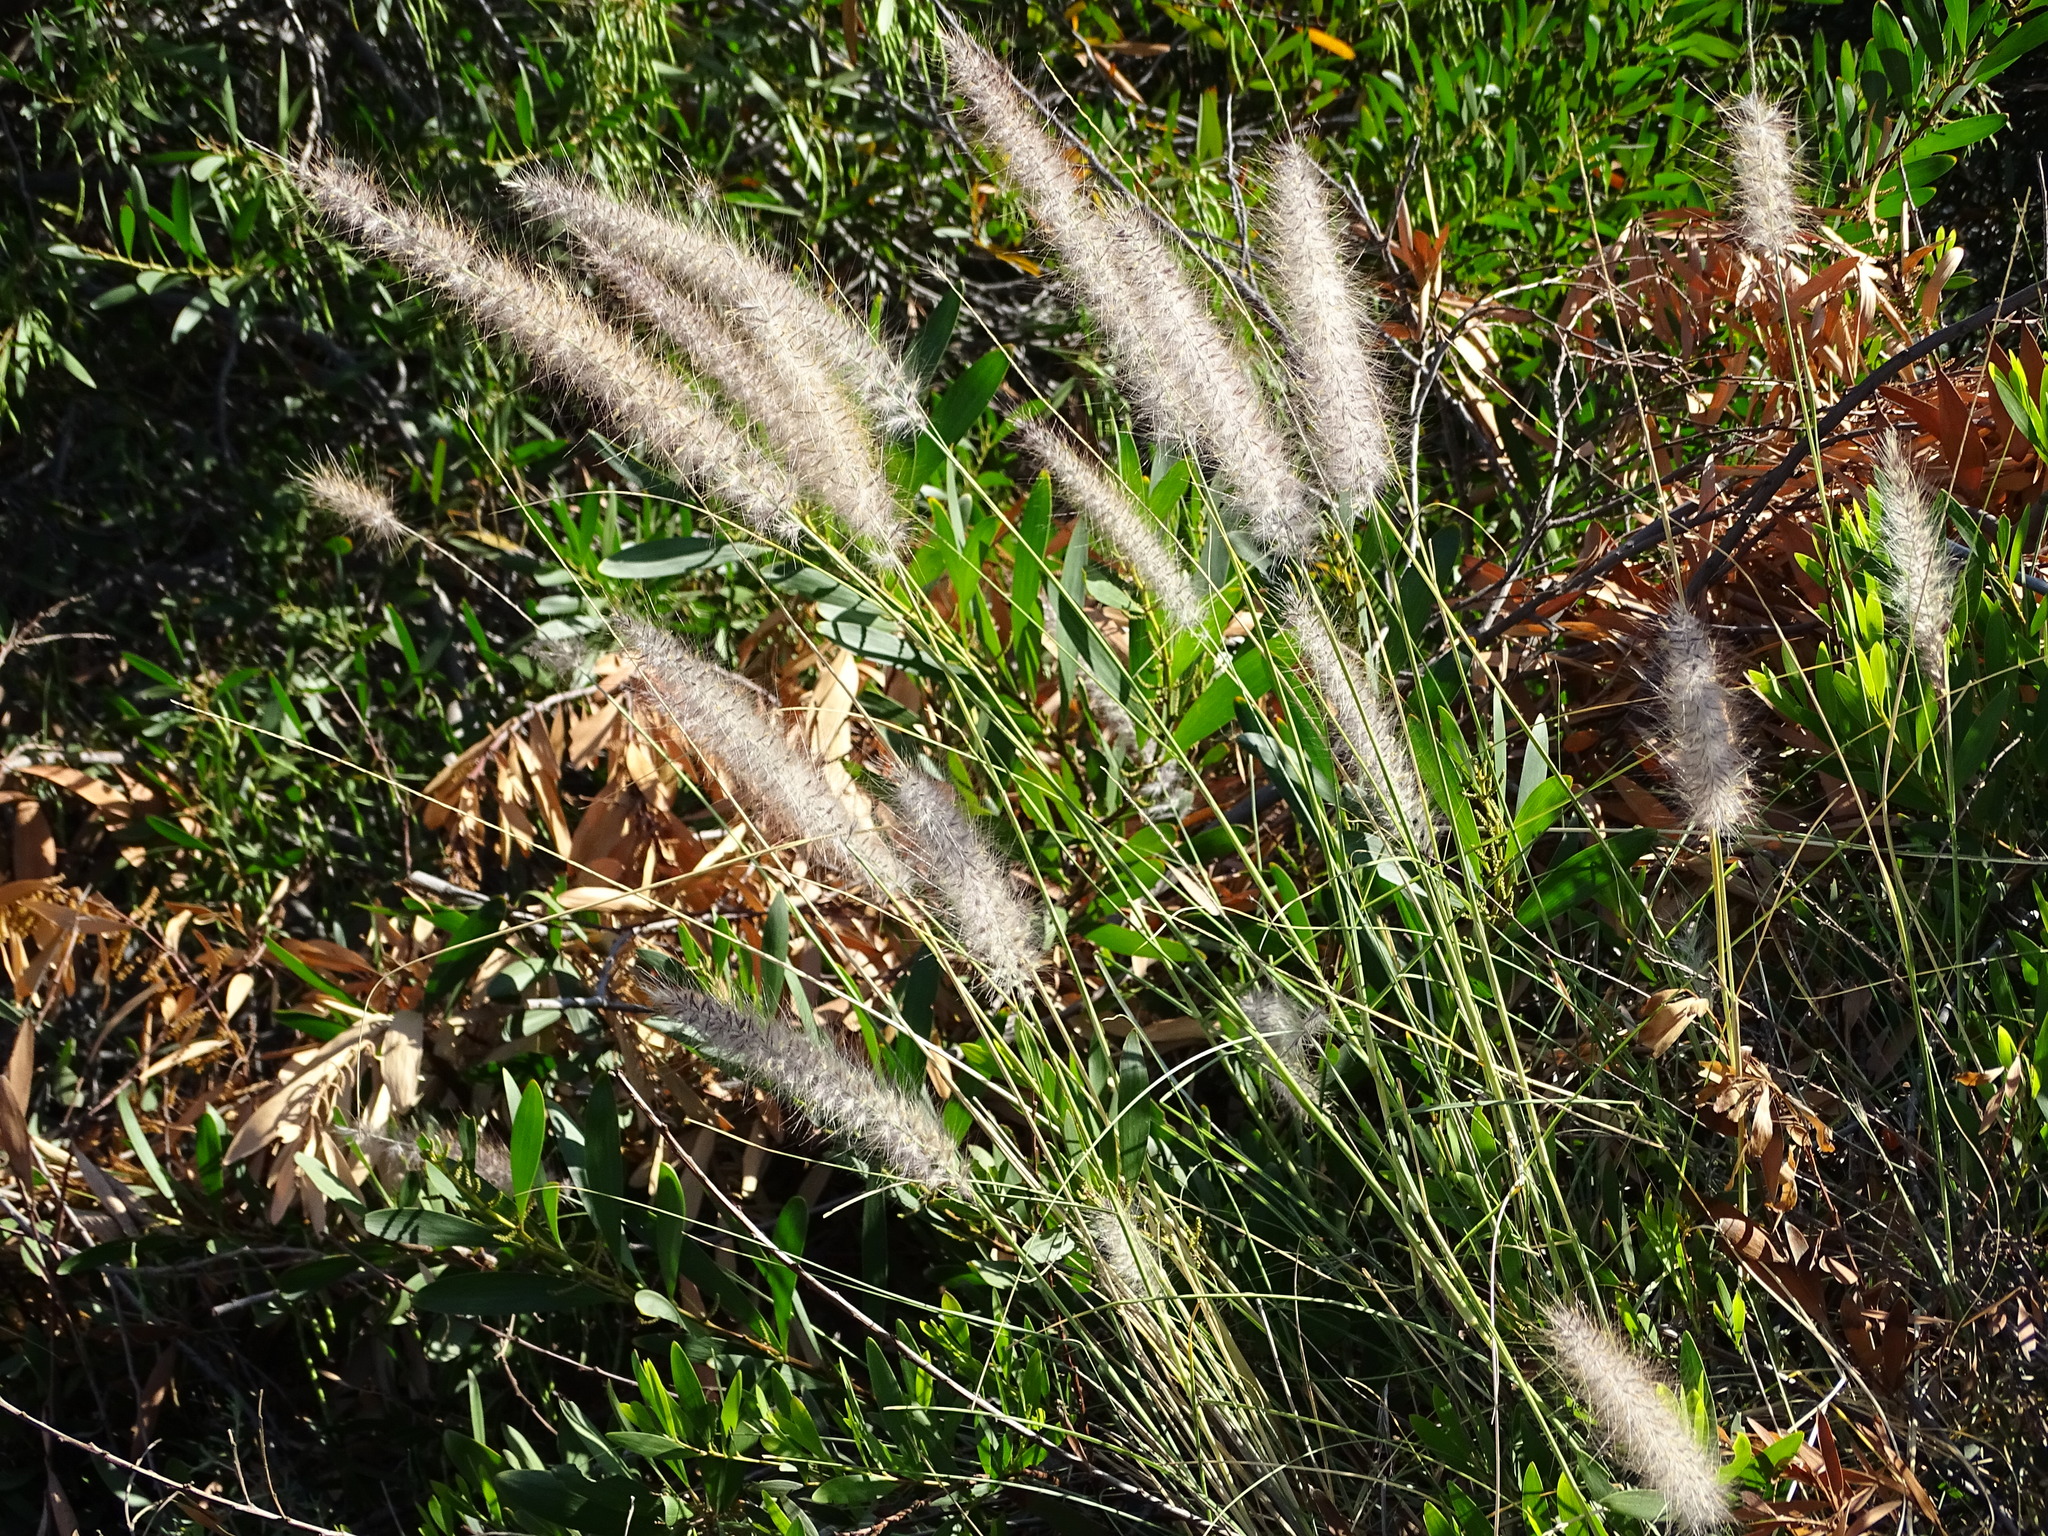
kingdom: Plantae
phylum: Tracheophyta
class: Liliopsida
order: Poales
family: Poaceae
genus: Cenchrus
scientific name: Cenchrus setaceus
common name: Crimson fountaingrass
